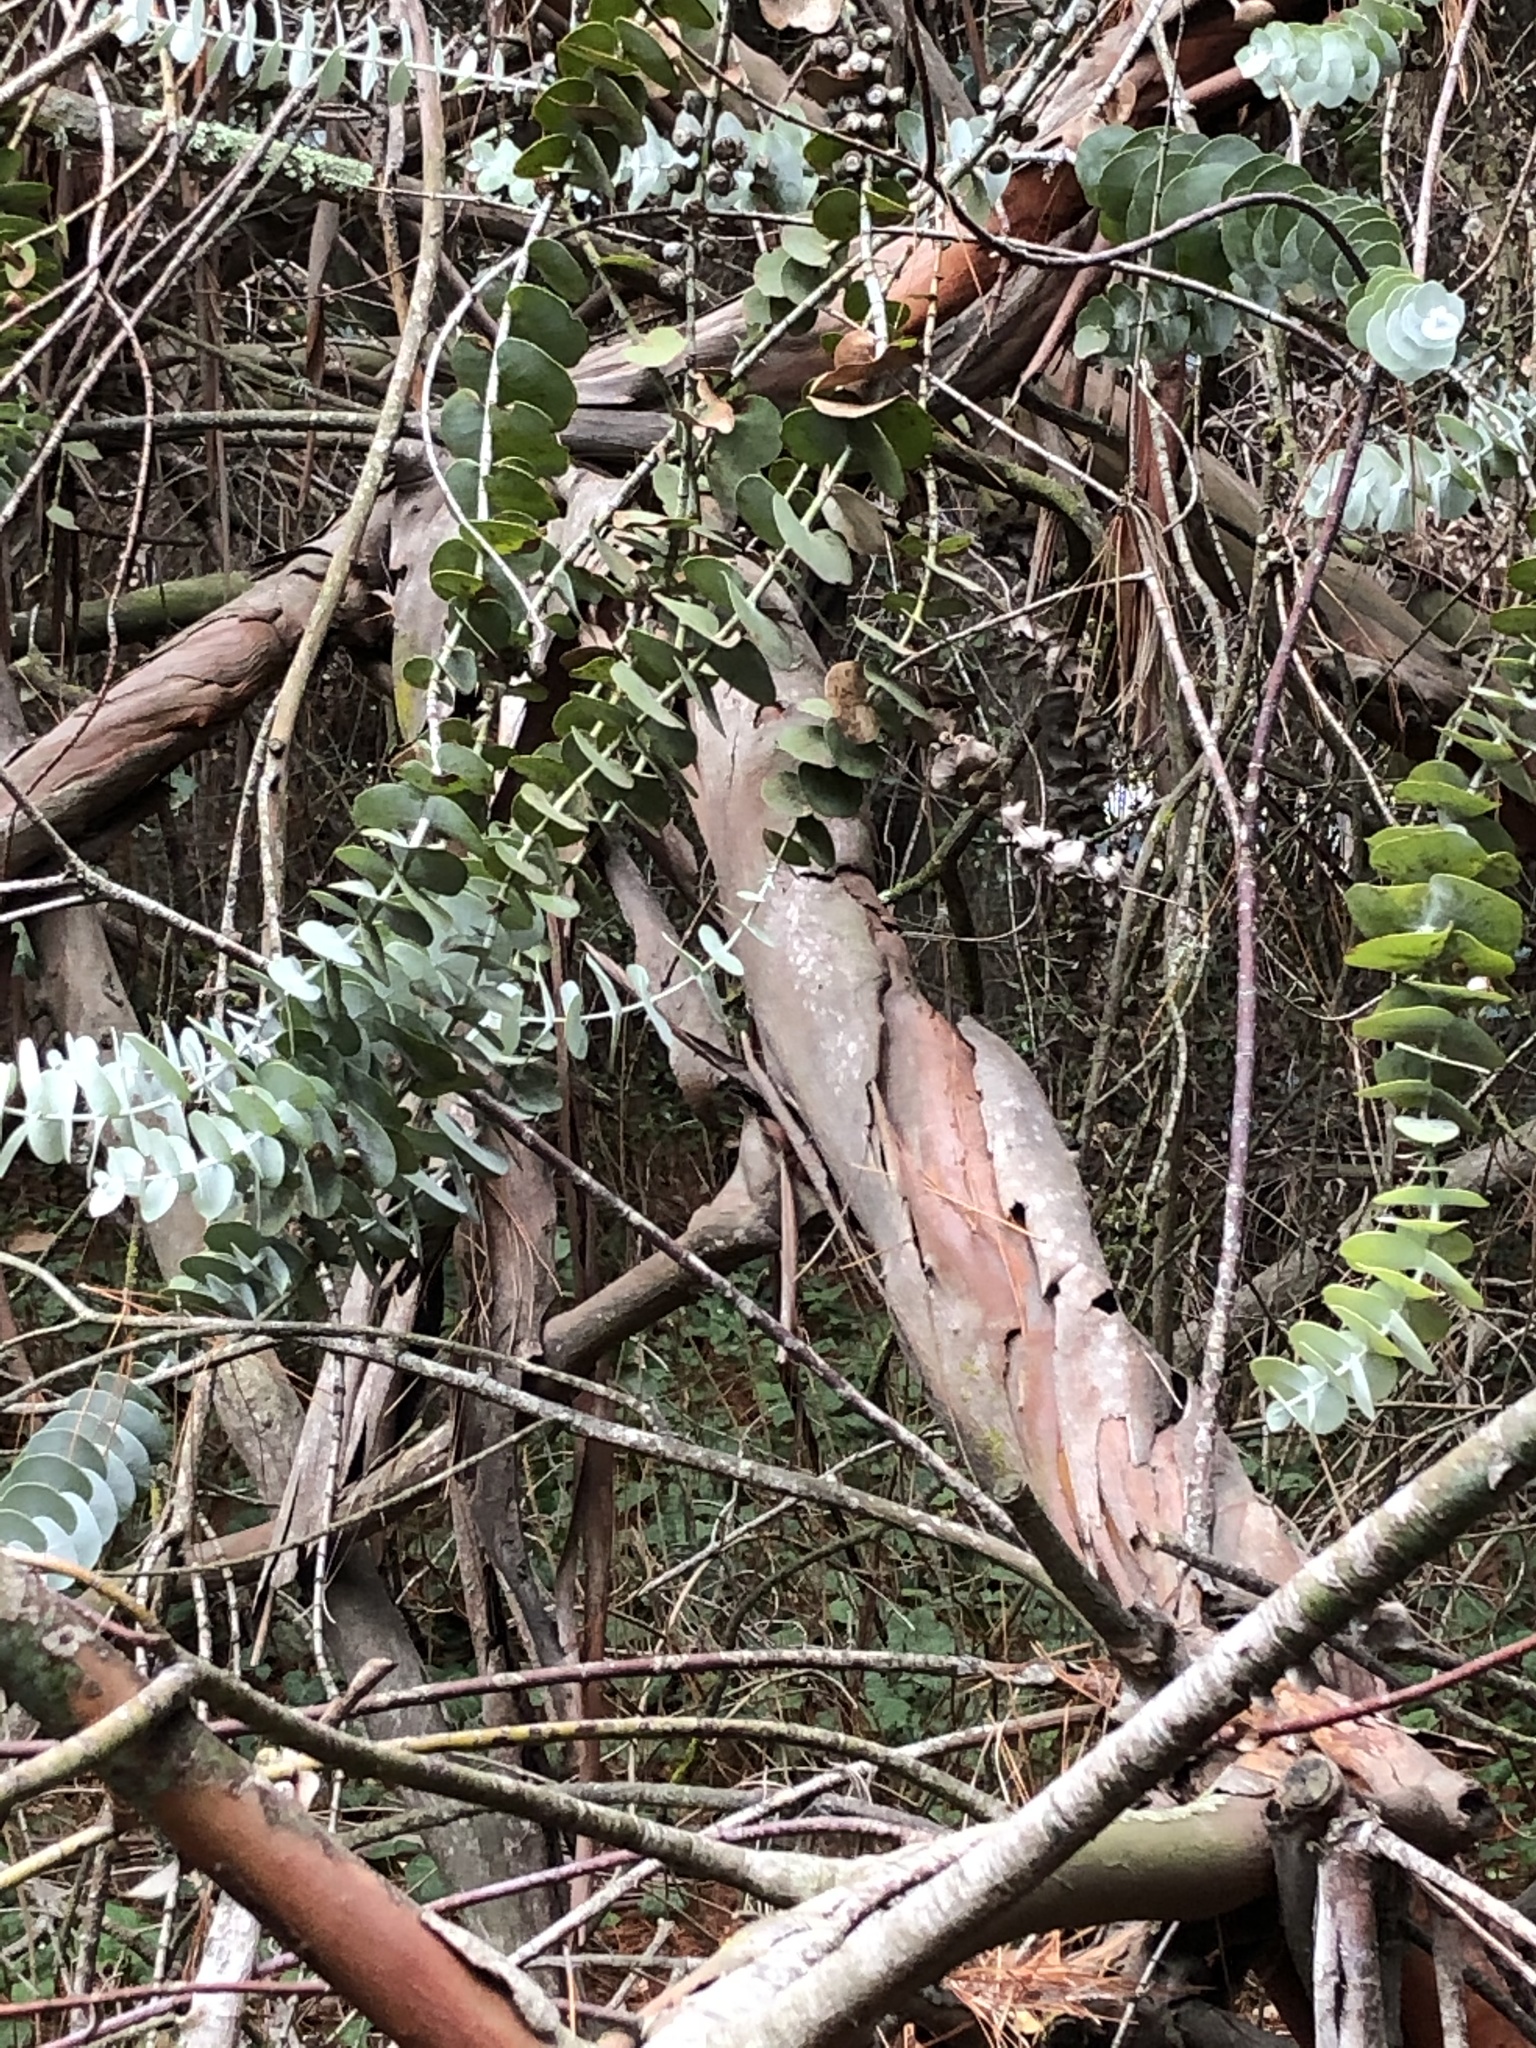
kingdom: Plantae
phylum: Tracheophyta
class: Magnoliopsida
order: Myrtales
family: Myrtaceae
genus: Eucalyptus
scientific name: Eucalyptus pulverulenta
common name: Silverleaf mountain gum
